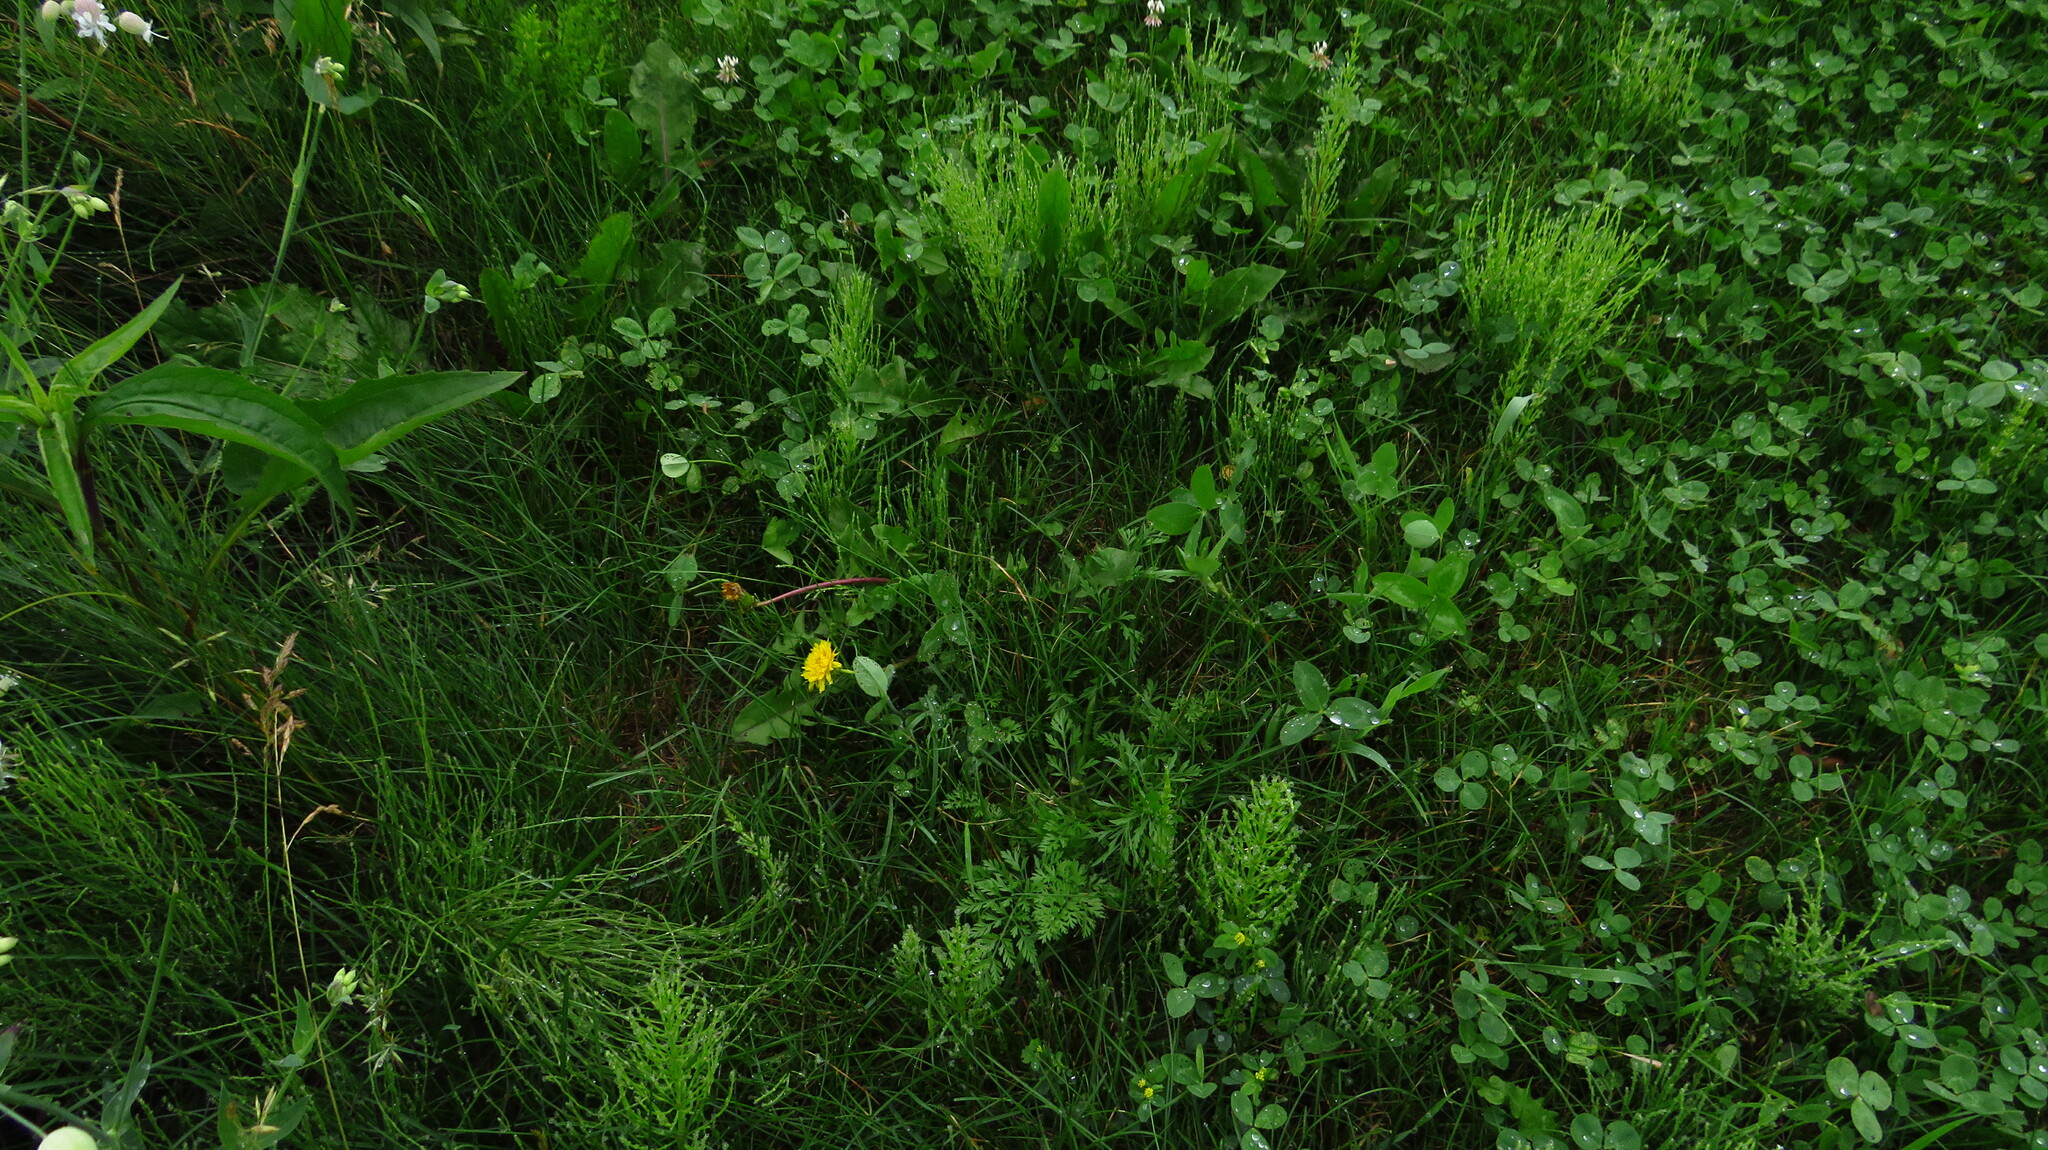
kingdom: Plantae
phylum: Tracheophyta
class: Polypodiopsida
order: Equisetales
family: Equisetaceae
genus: Equisetum
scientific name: Equisetum arvense
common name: Field horsetail
